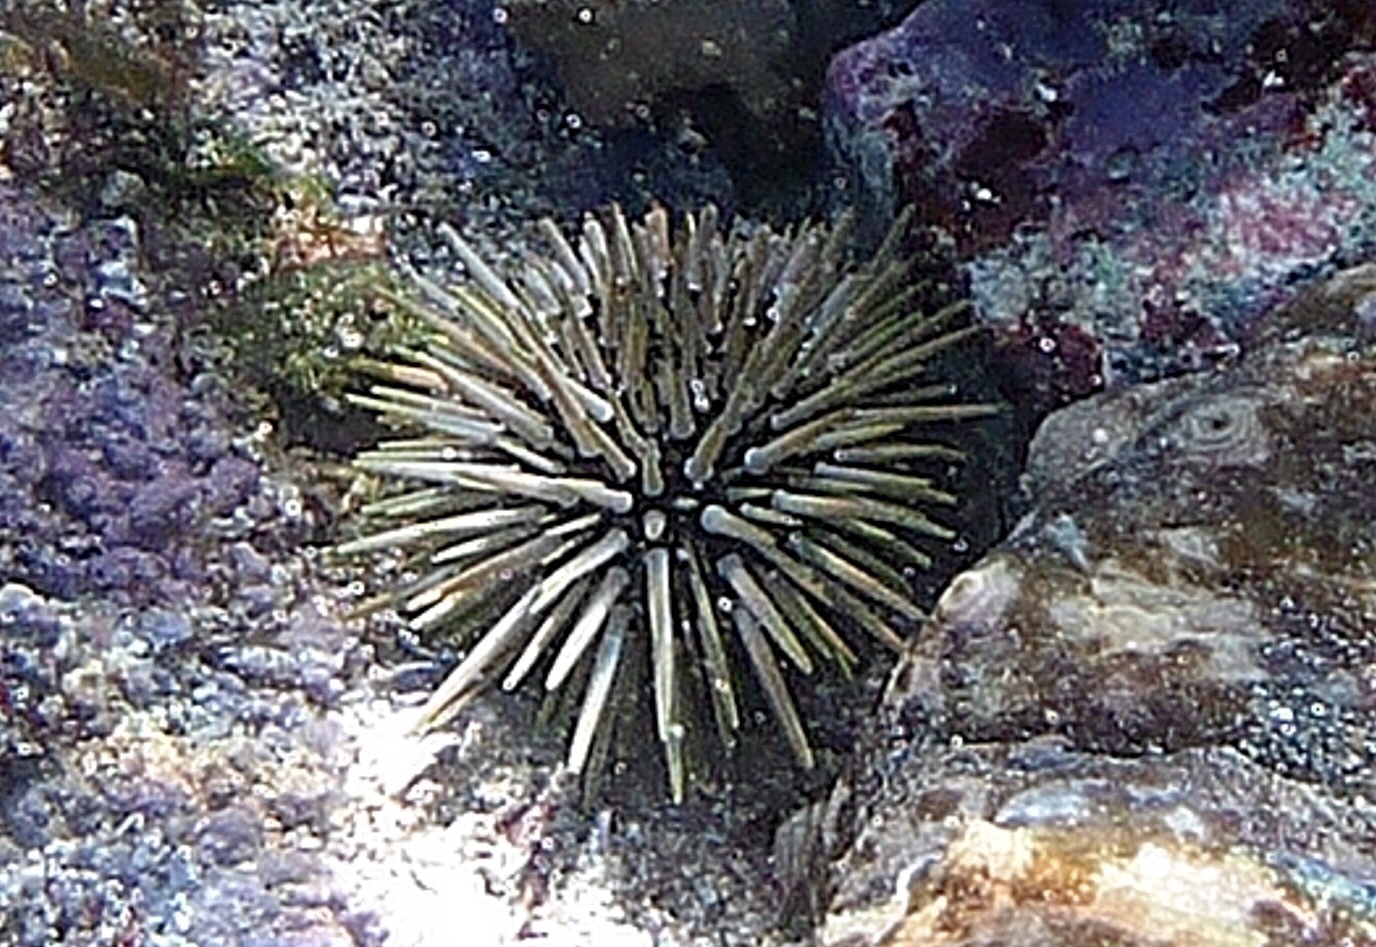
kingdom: Animalia
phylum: Echinodermata
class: Echinoidea
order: Camarodonta
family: Echinometridae
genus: Echinometra
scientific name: Echinometra mathaei
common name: Rock-boring urchin
